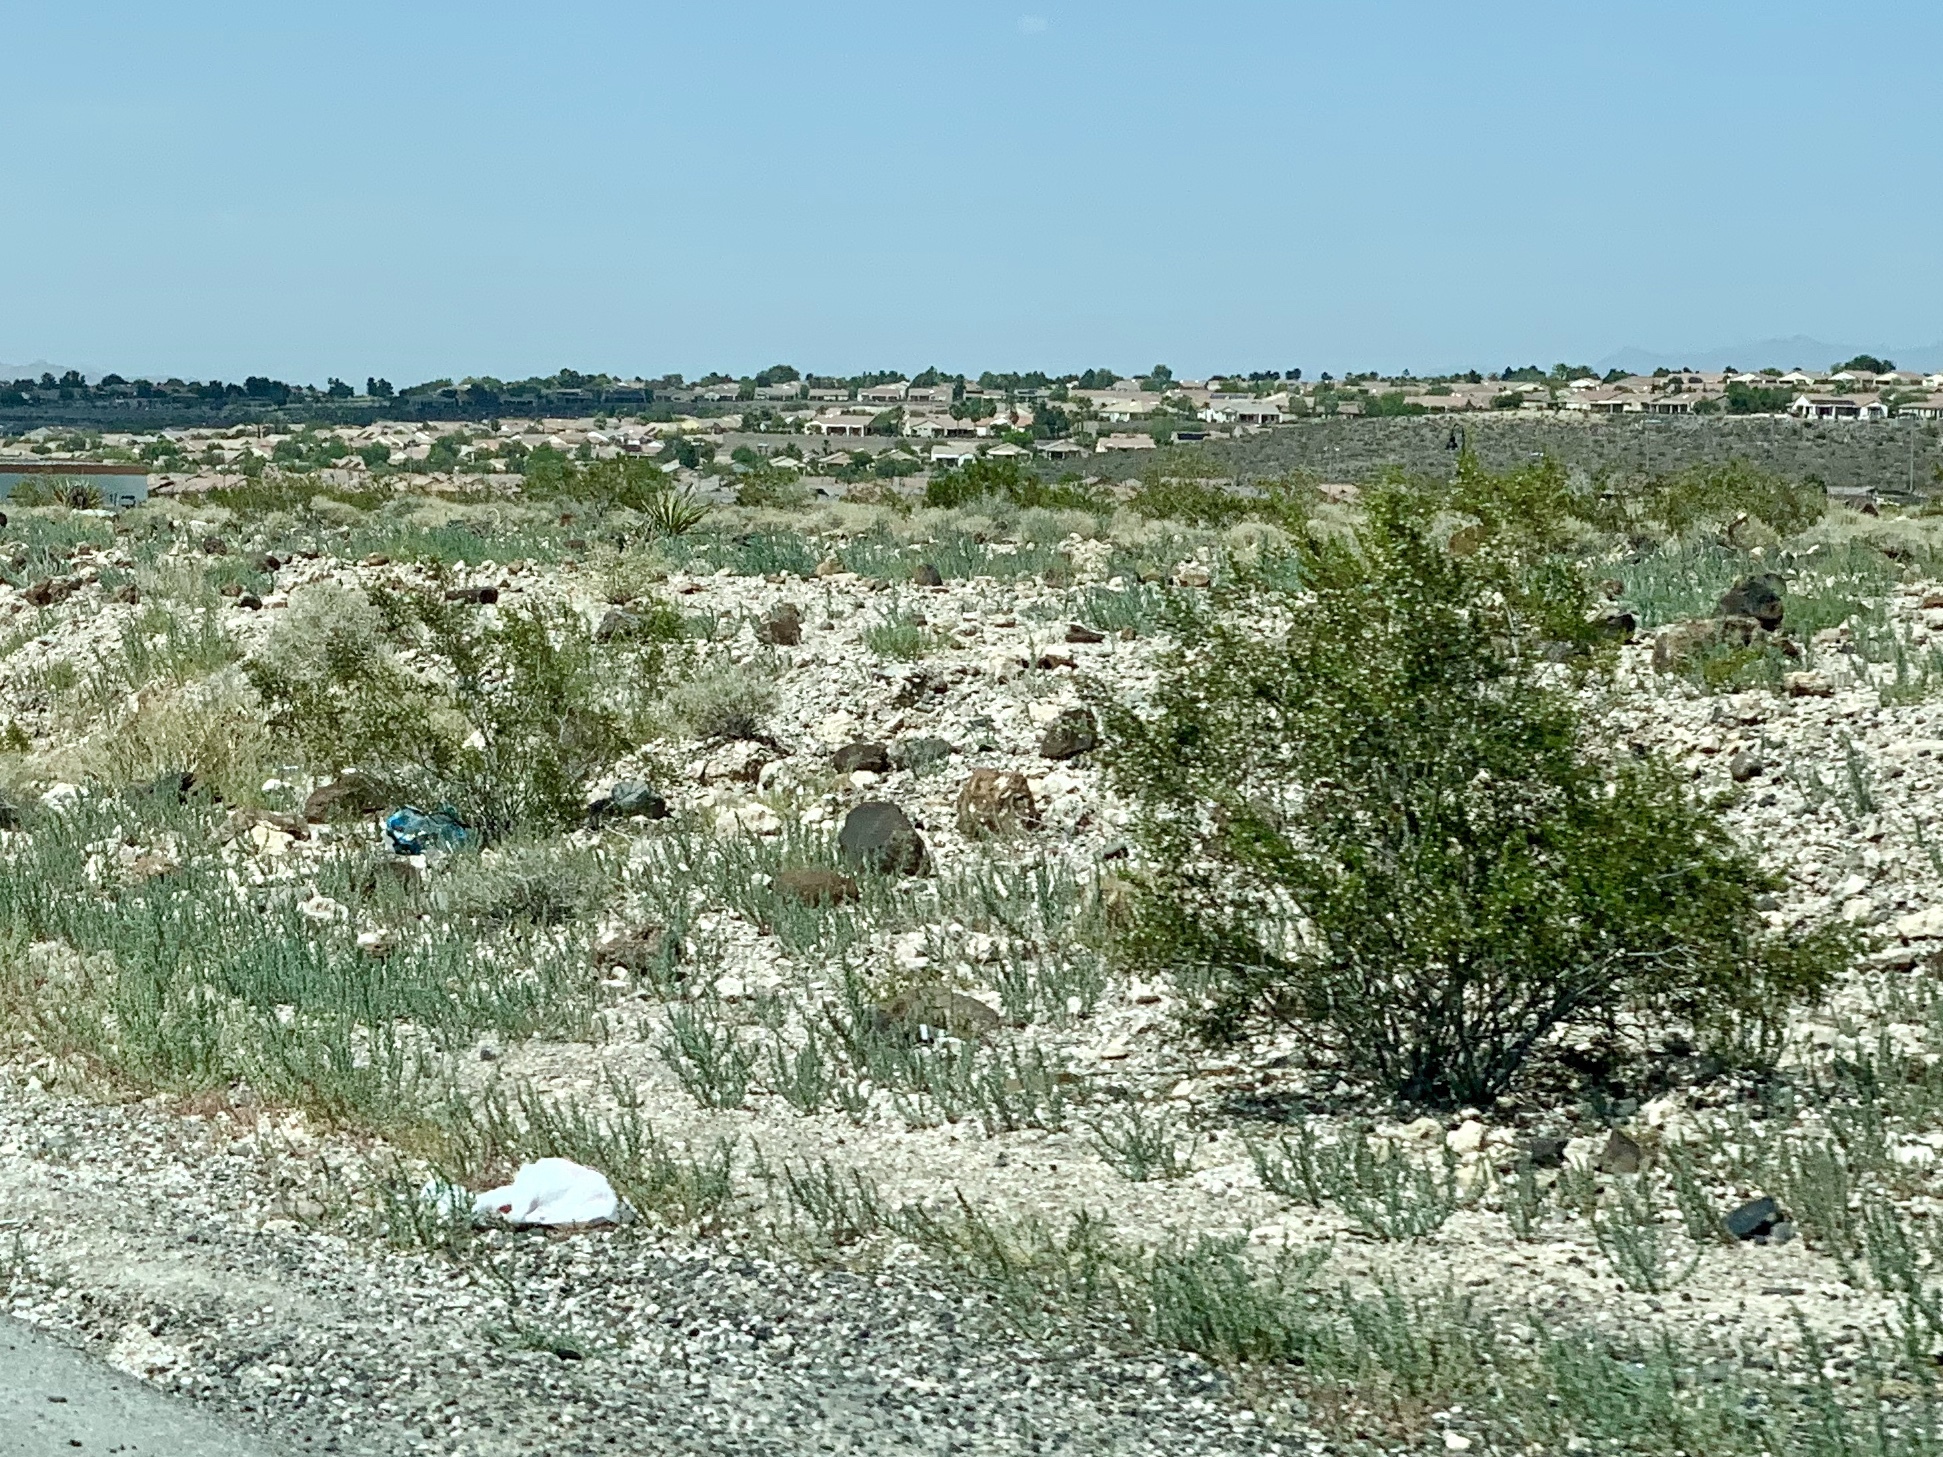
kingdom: Plantae
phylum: Tracheophyta
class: Magnoliopsida
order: Zygophyllales
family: Zygophyllaceae
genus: Larrea
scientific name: Larrea tridentata
